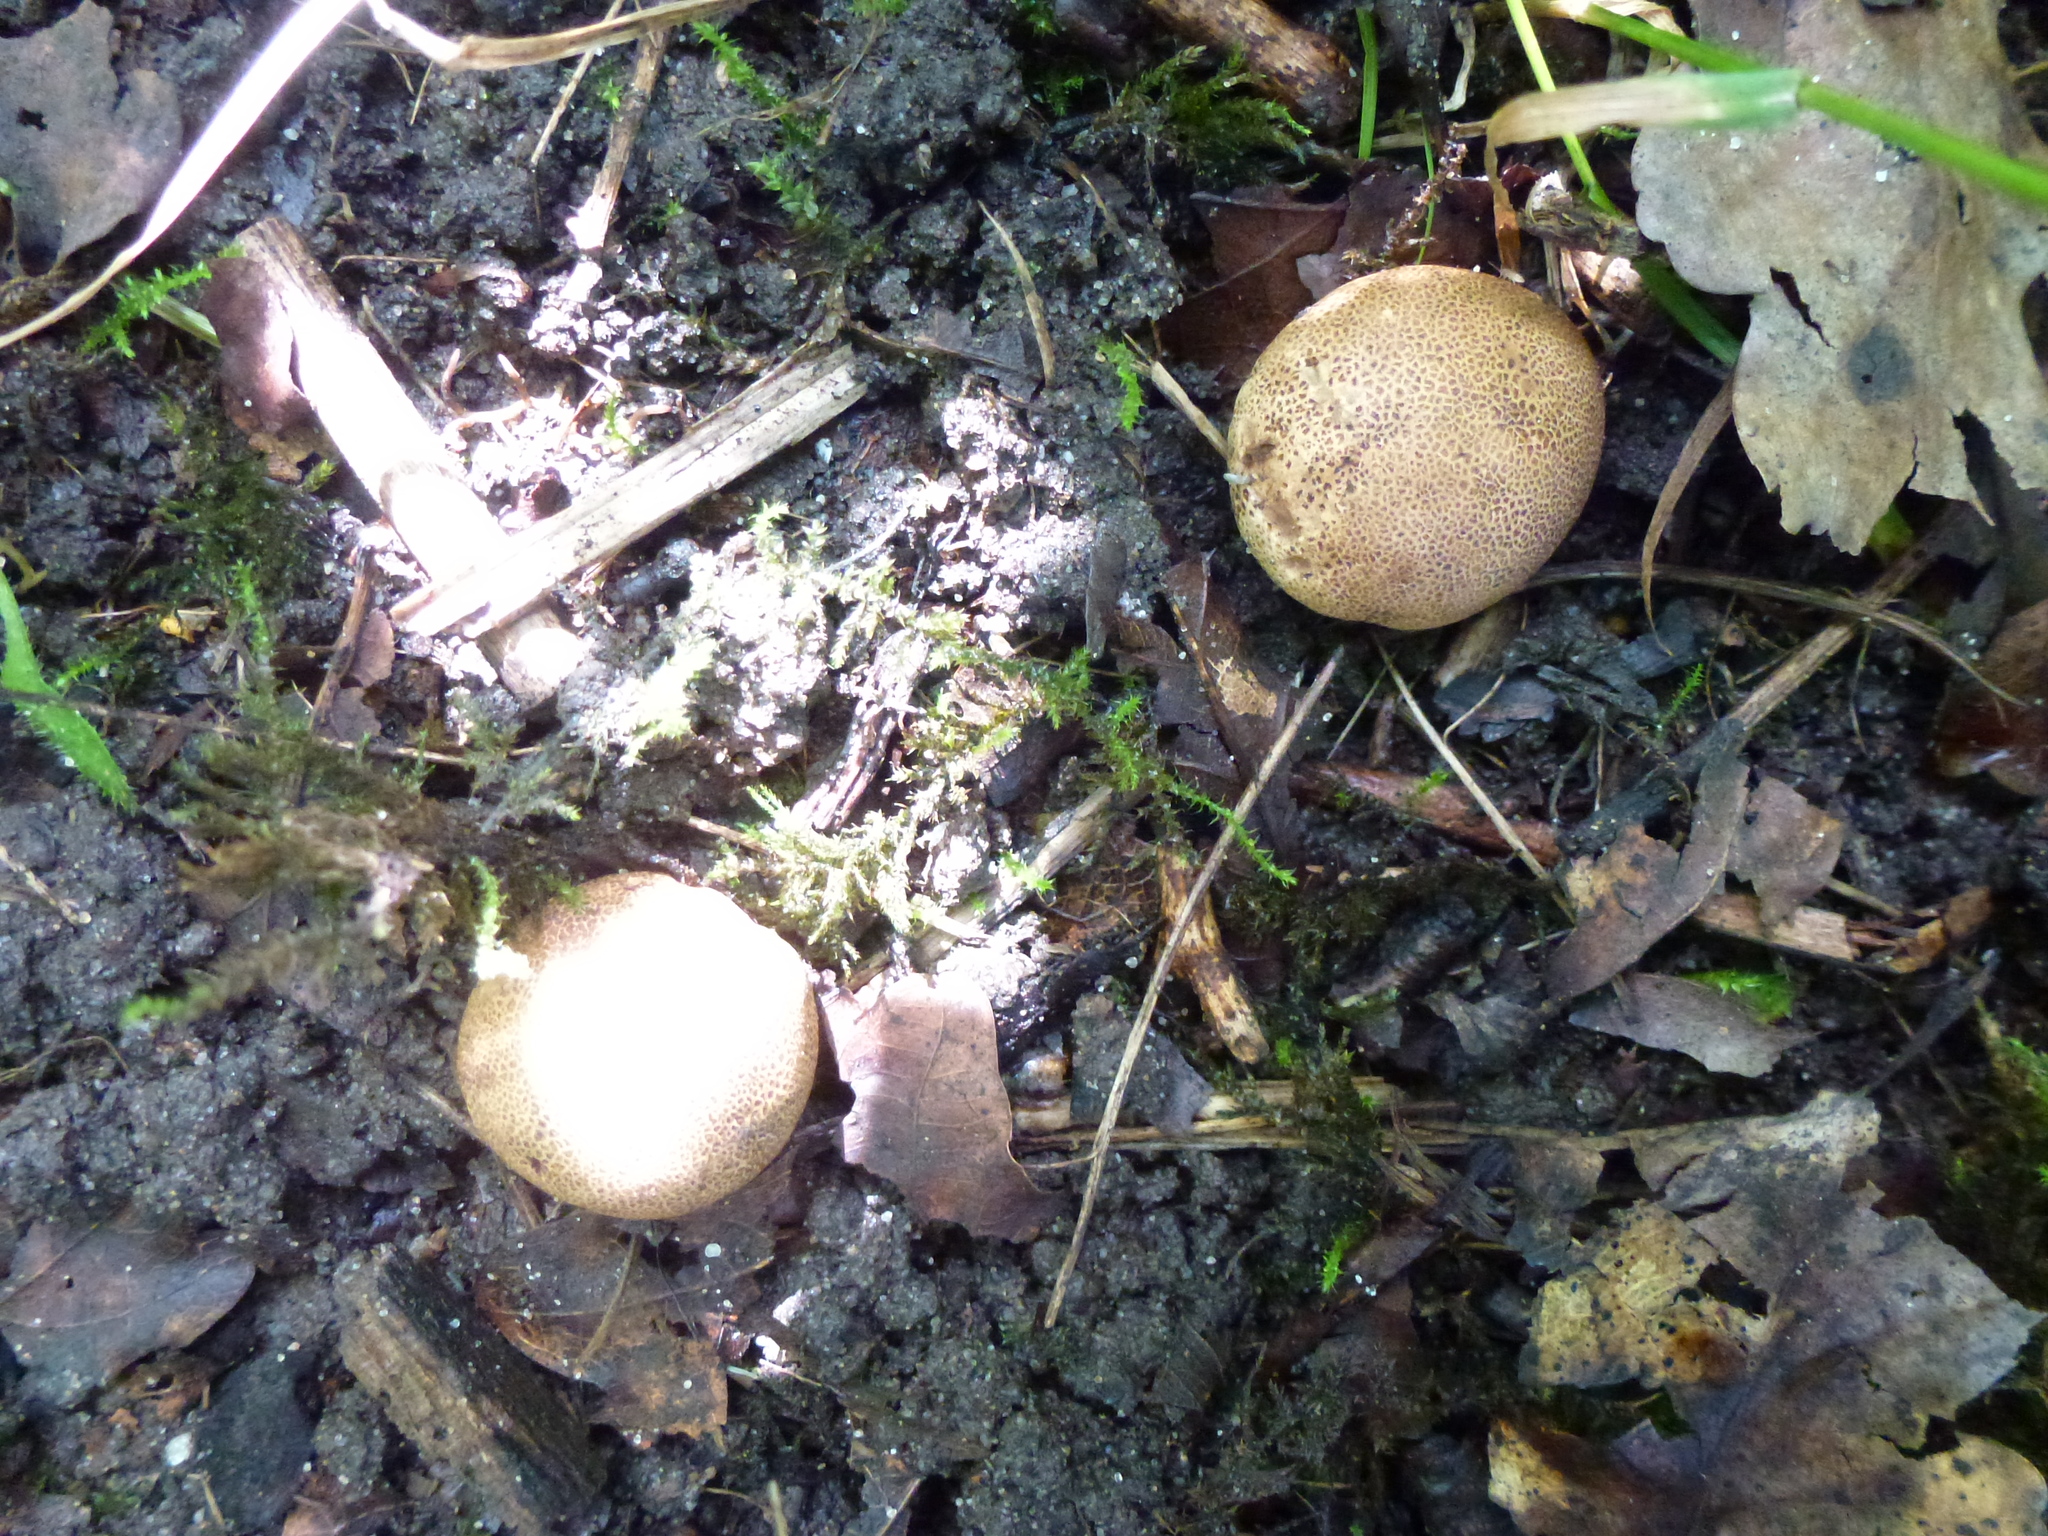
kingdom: Fungi
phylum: Basidiomycota
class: Agaricomycetes
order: Boletales
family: Sclerodermataceae
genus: Scleroderma
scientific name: Scleroderma citrinum
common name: Common earthball
